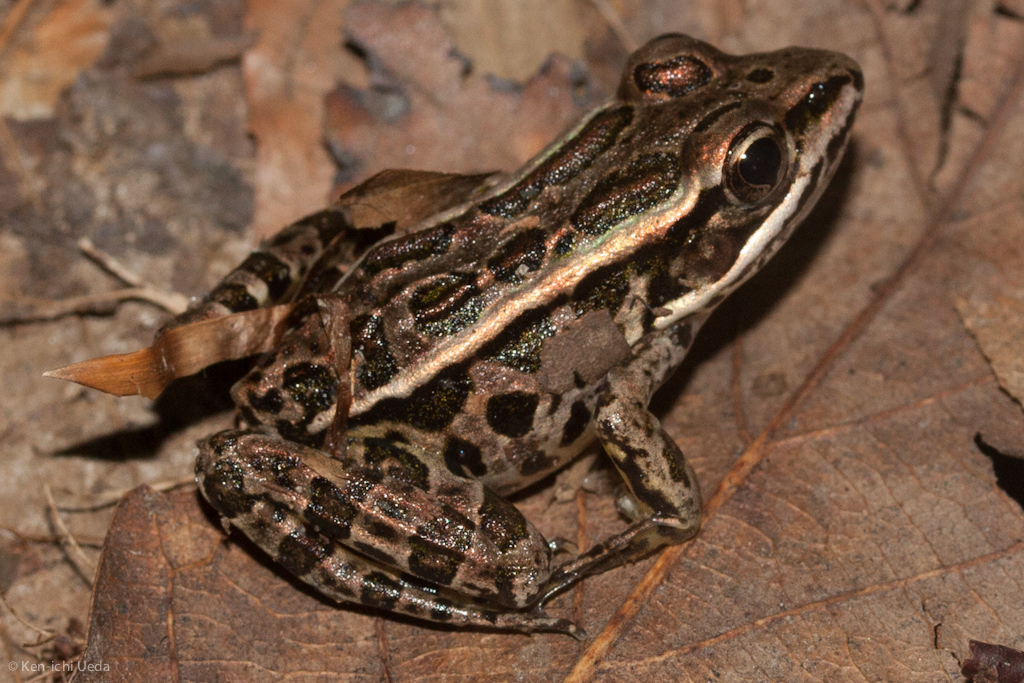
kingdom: Animalia
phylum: Chordata
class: Amphibia
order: Anura
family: Ranidae
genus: Lithobates
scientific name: Lithobates palustris
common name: Pickerel frog
